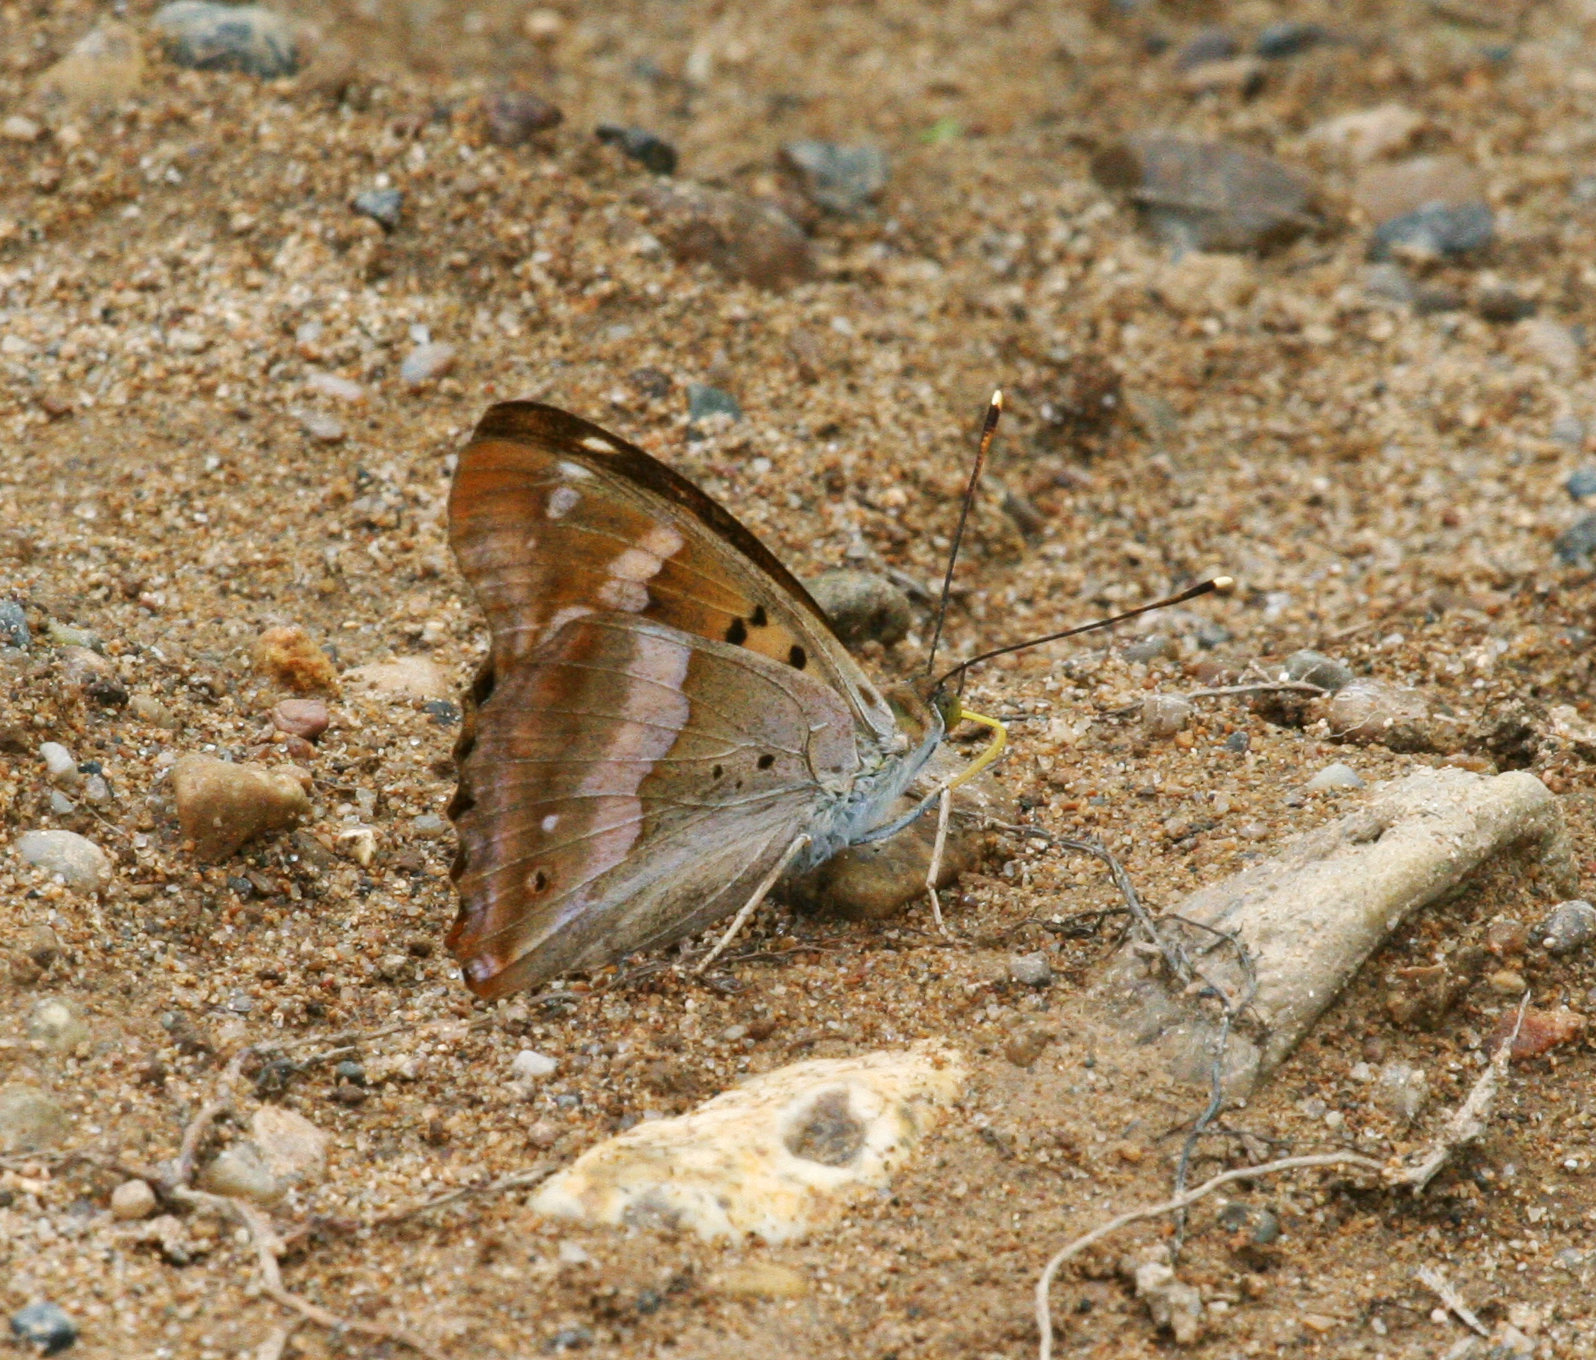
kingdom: Animalia
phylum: Arthropoda
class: Insecta
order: Lepidoptera
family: Nymphalidae
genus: Apatura
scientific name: Apatura ilia
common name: Lesser purple emperor
